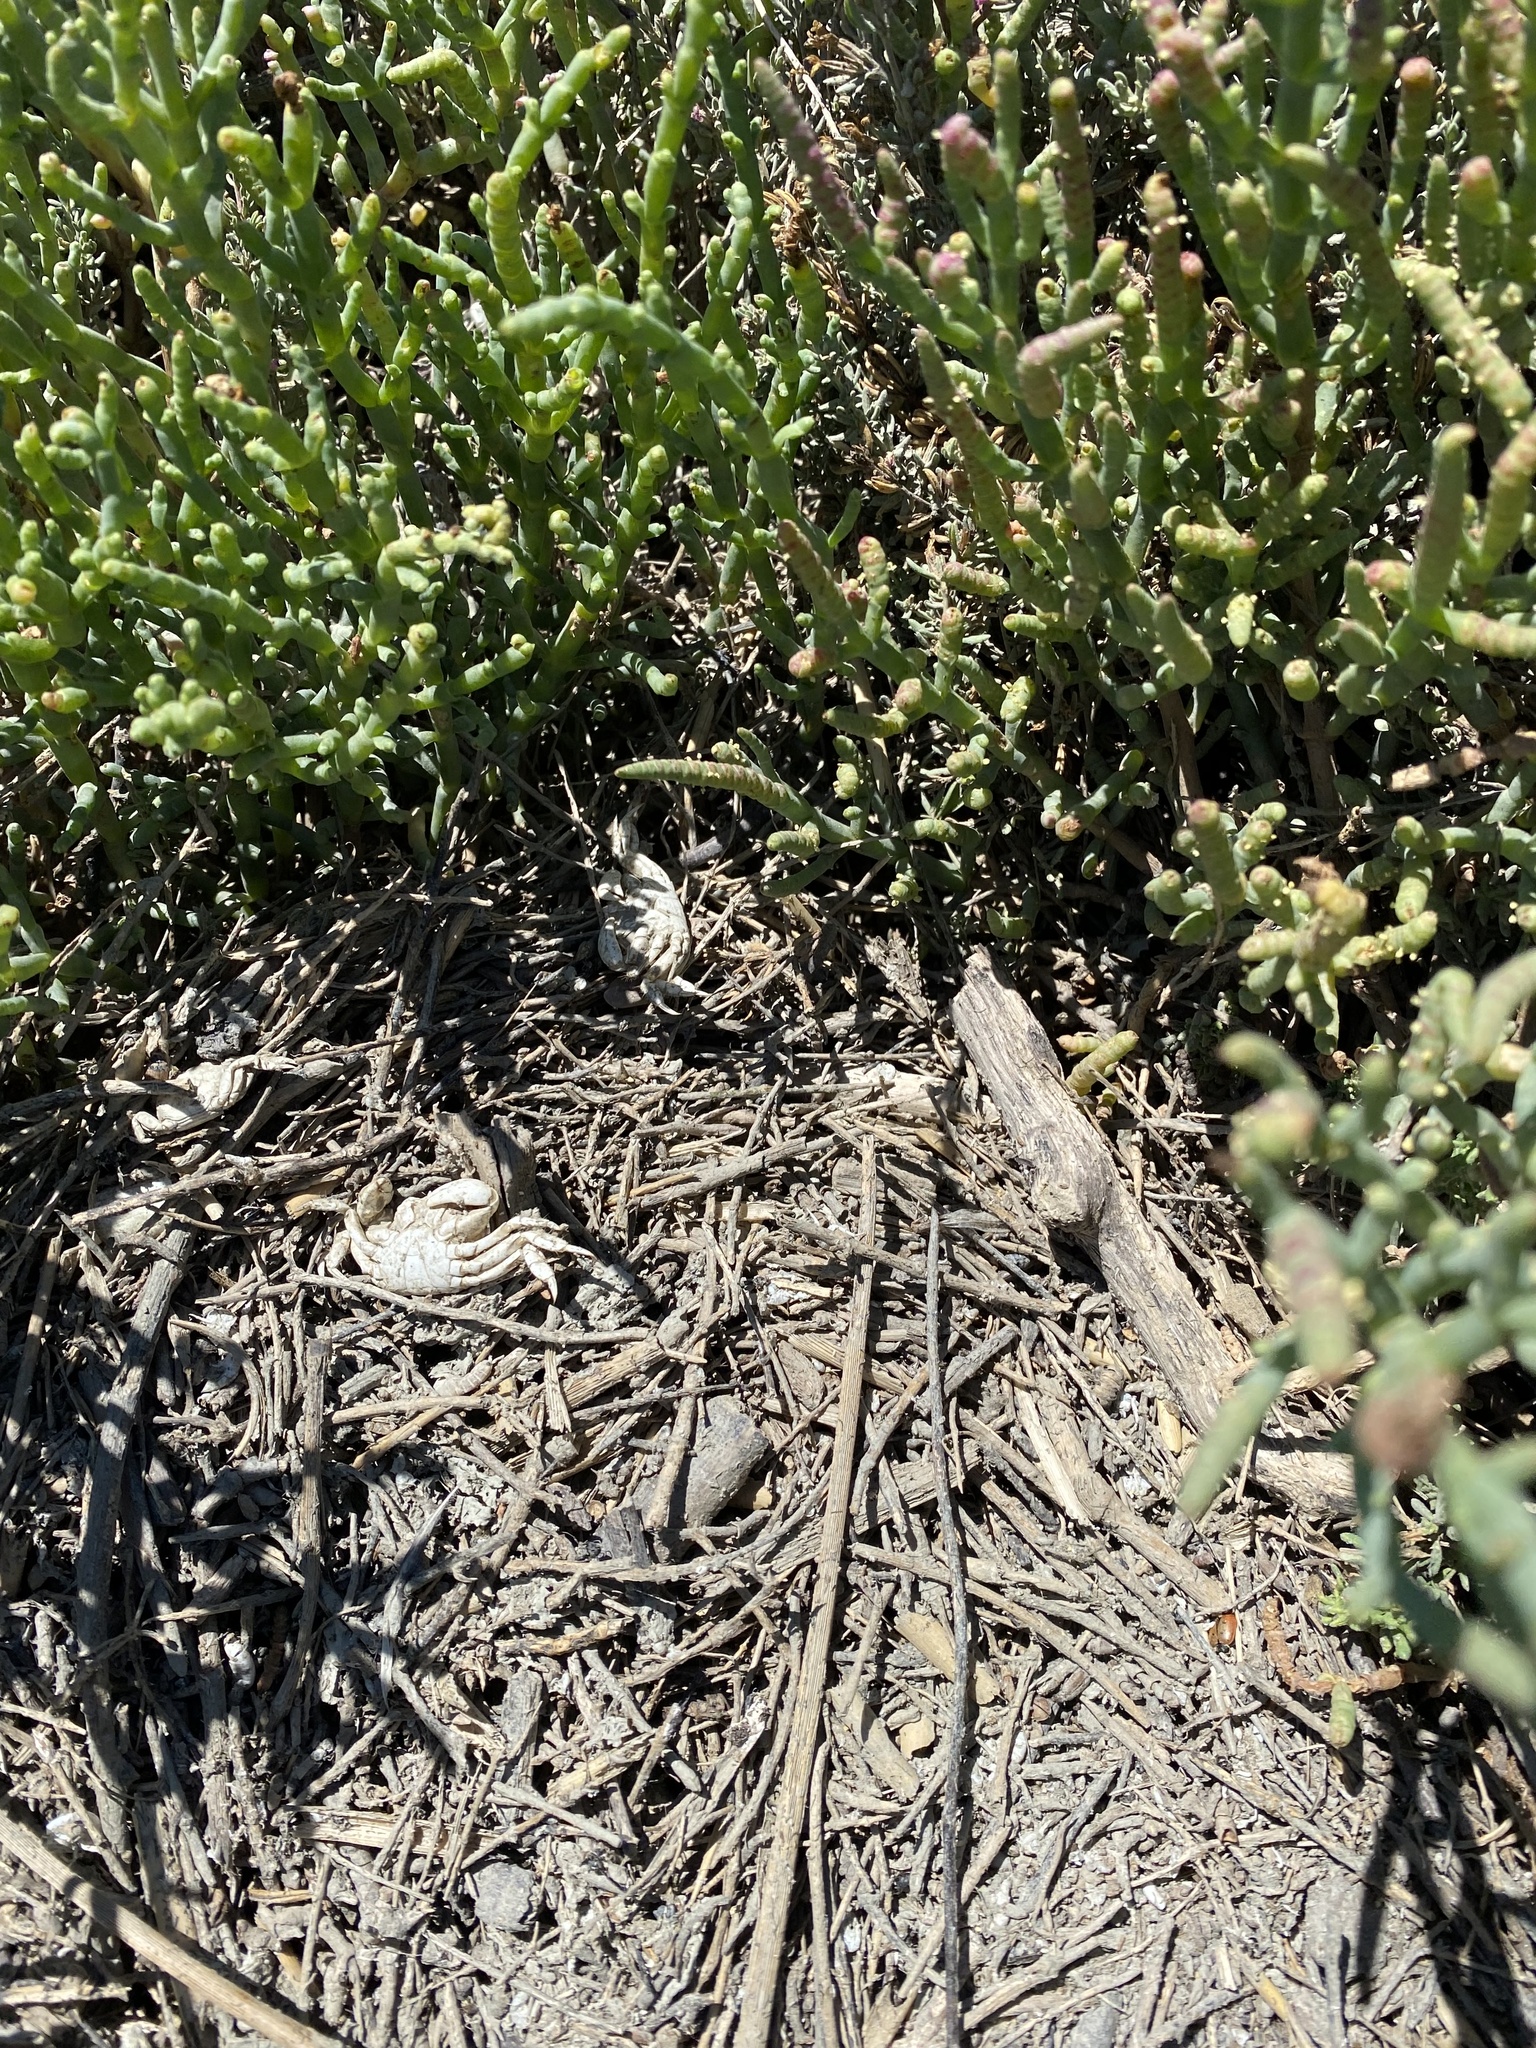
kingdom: Animalia
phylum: Arthropoda
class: Malacostraca
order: Decapoda
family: Varunidae
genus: Hemigrapsus
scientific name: Hemigrapsus oregonensis
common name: Yellow shore crab
